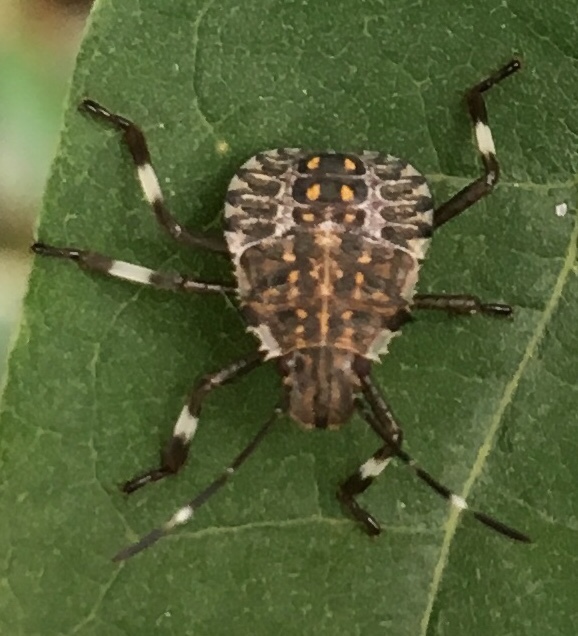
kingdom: Animalia
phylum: Arthropoda
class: Insecta
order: Hemiptera
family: Pentatomidae
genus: Halyomorpha
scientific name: Halyomorpha halys
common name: Brown marmorated stink bug
